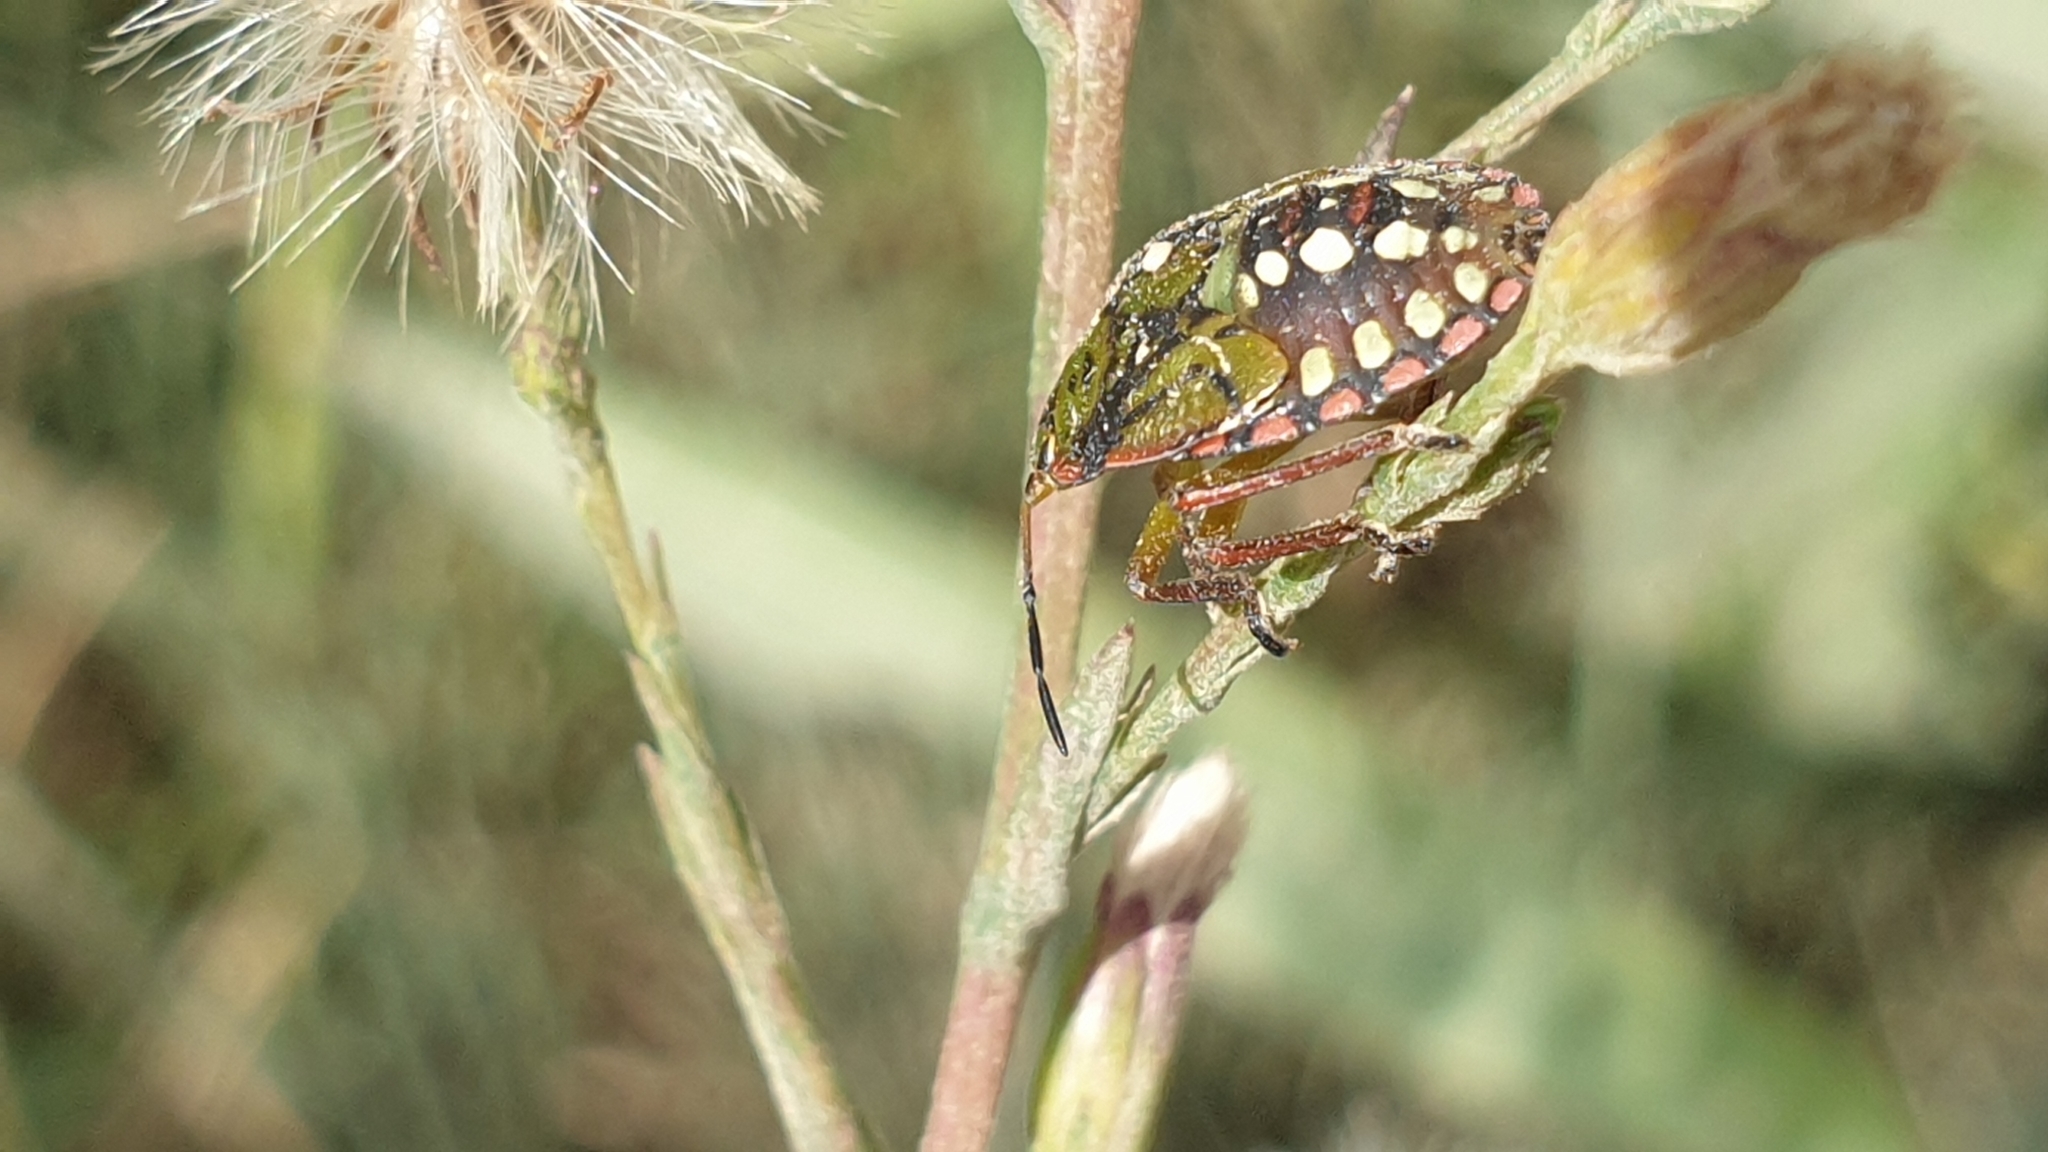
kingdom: Animalia
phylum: Arthropoda
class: Insecta
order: Hemiptera
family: Pentatomidae
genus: Nezara
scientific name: Nezara viridula
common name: Southern green stink bug
